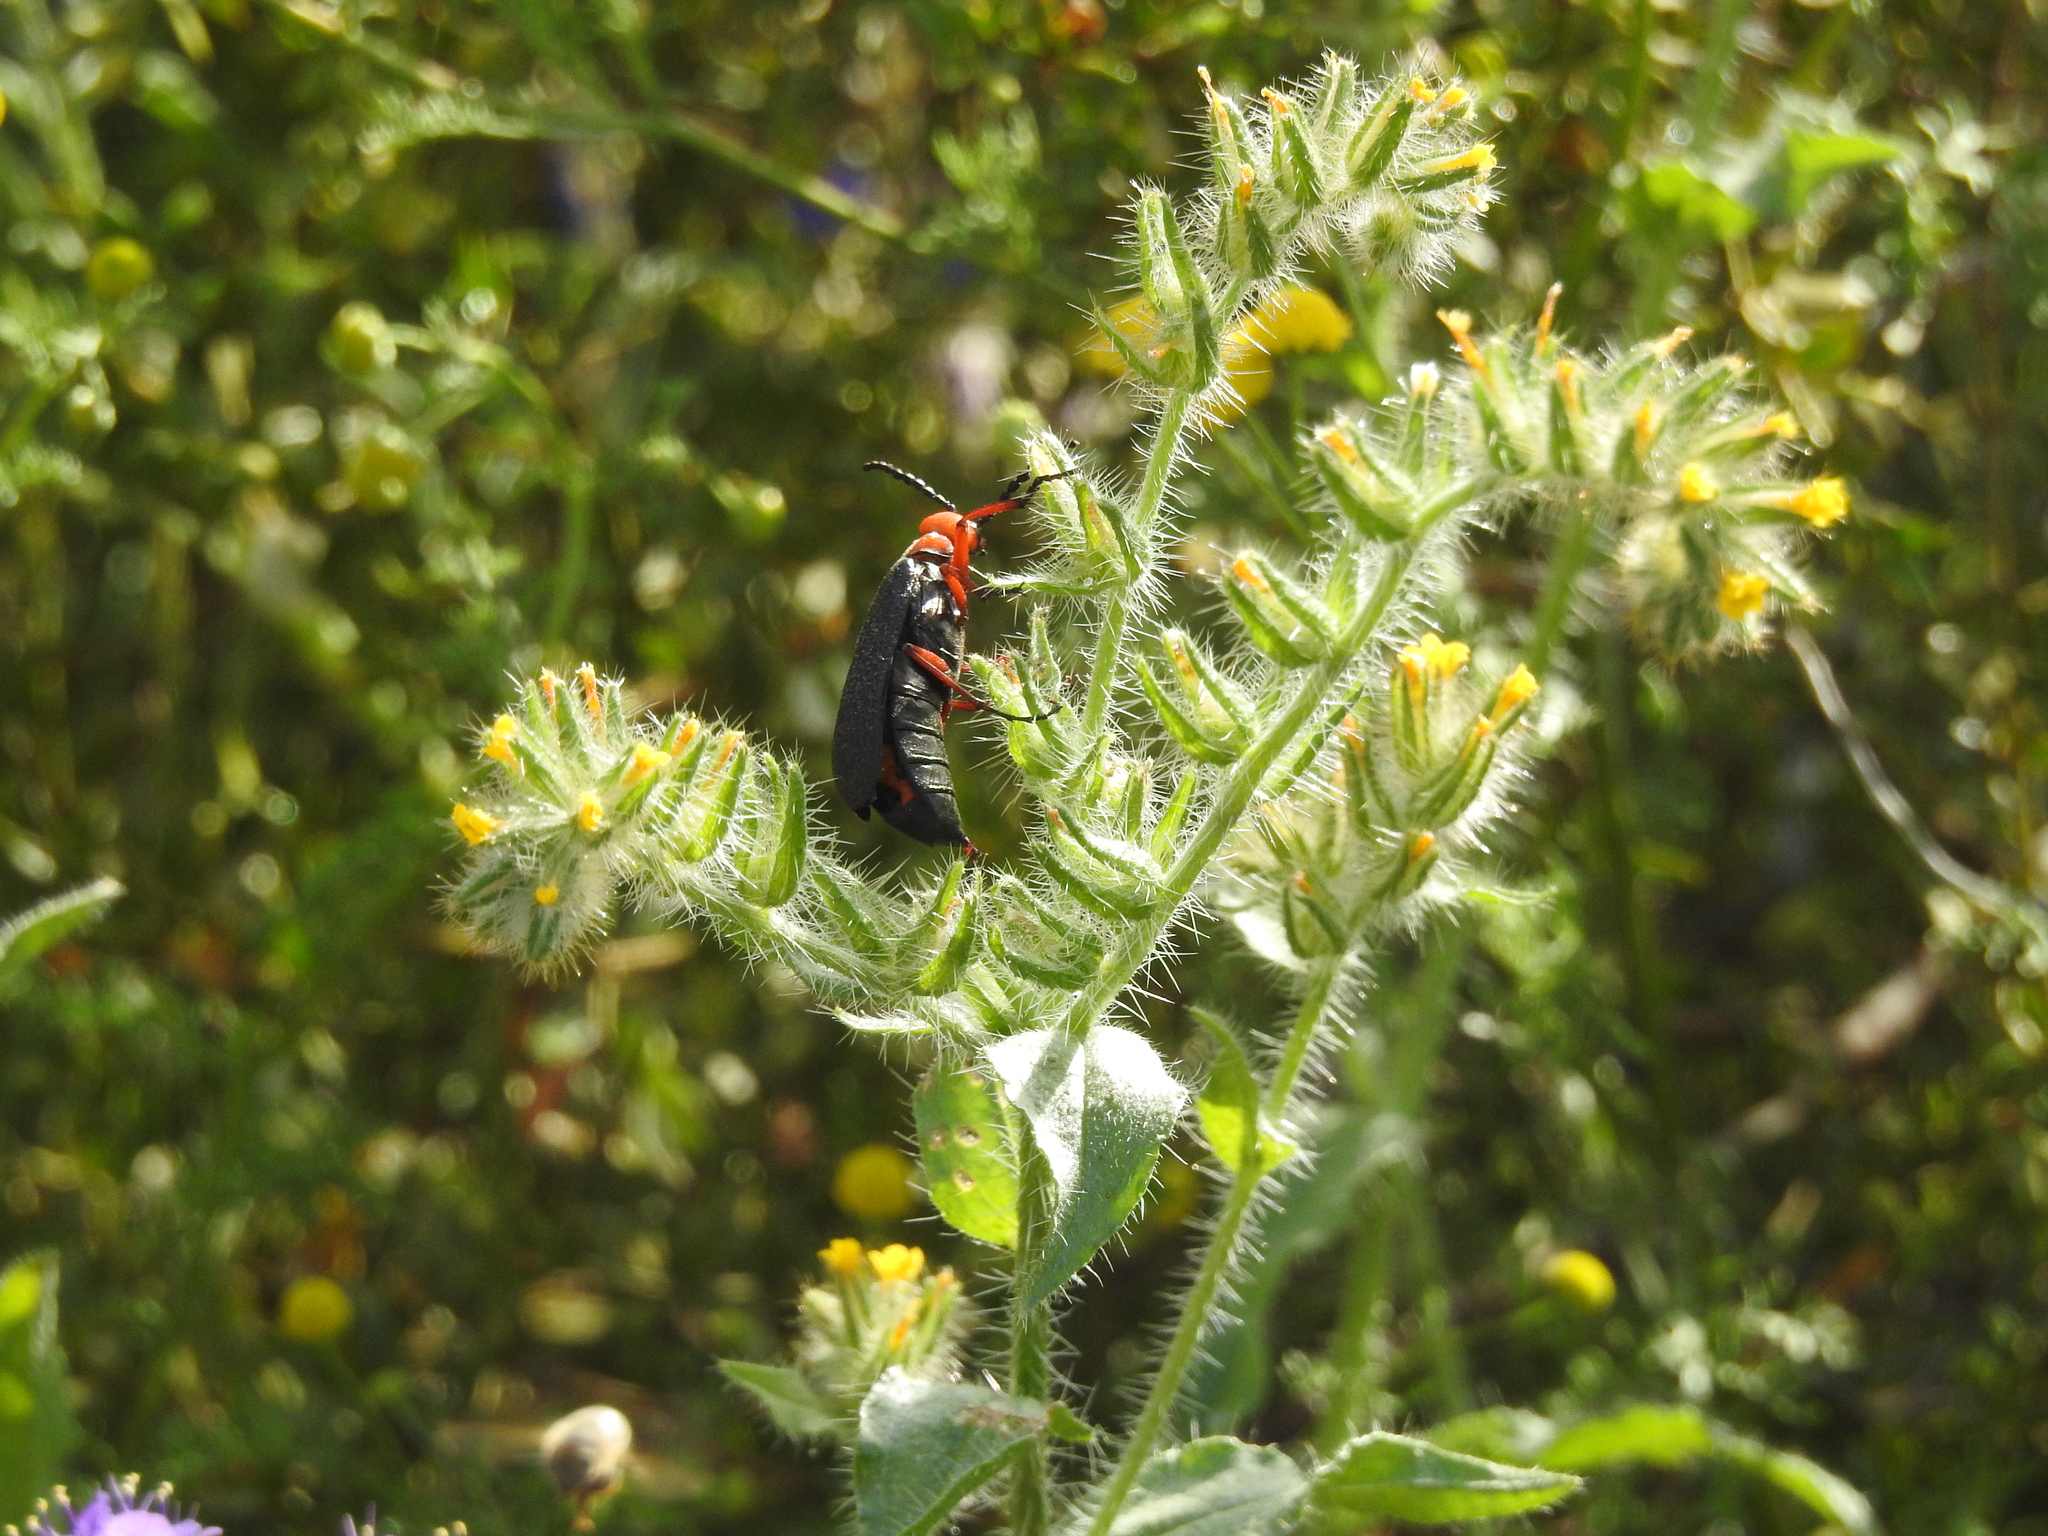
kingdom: Animalia
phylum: Arthropoda
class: Insecta
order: Coleoptera
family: Meloidae
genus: Lytta
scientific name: Lytta magister
